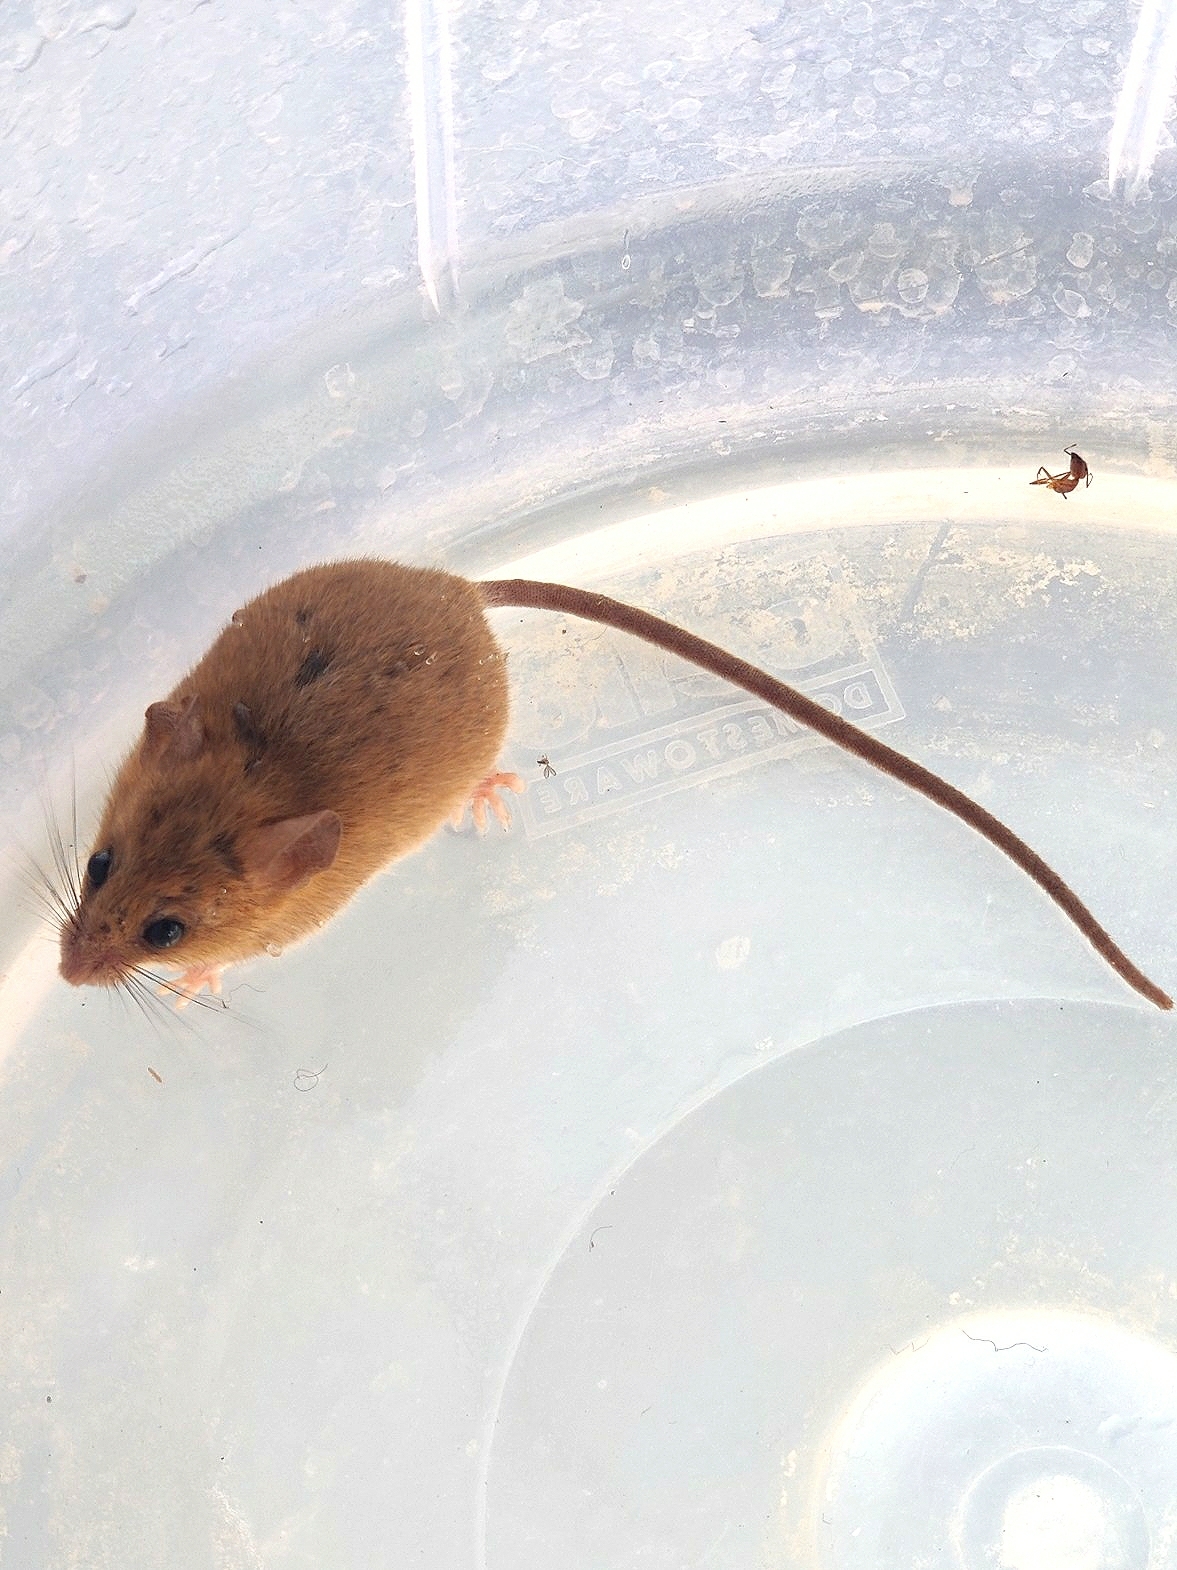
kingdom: Animalia
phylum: Chordata
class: Mammalia
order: Rodentia
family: Muridae
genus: Vandeleuria
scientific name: Vandeleuria oleracea
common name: Indomalayan vandeleuria
